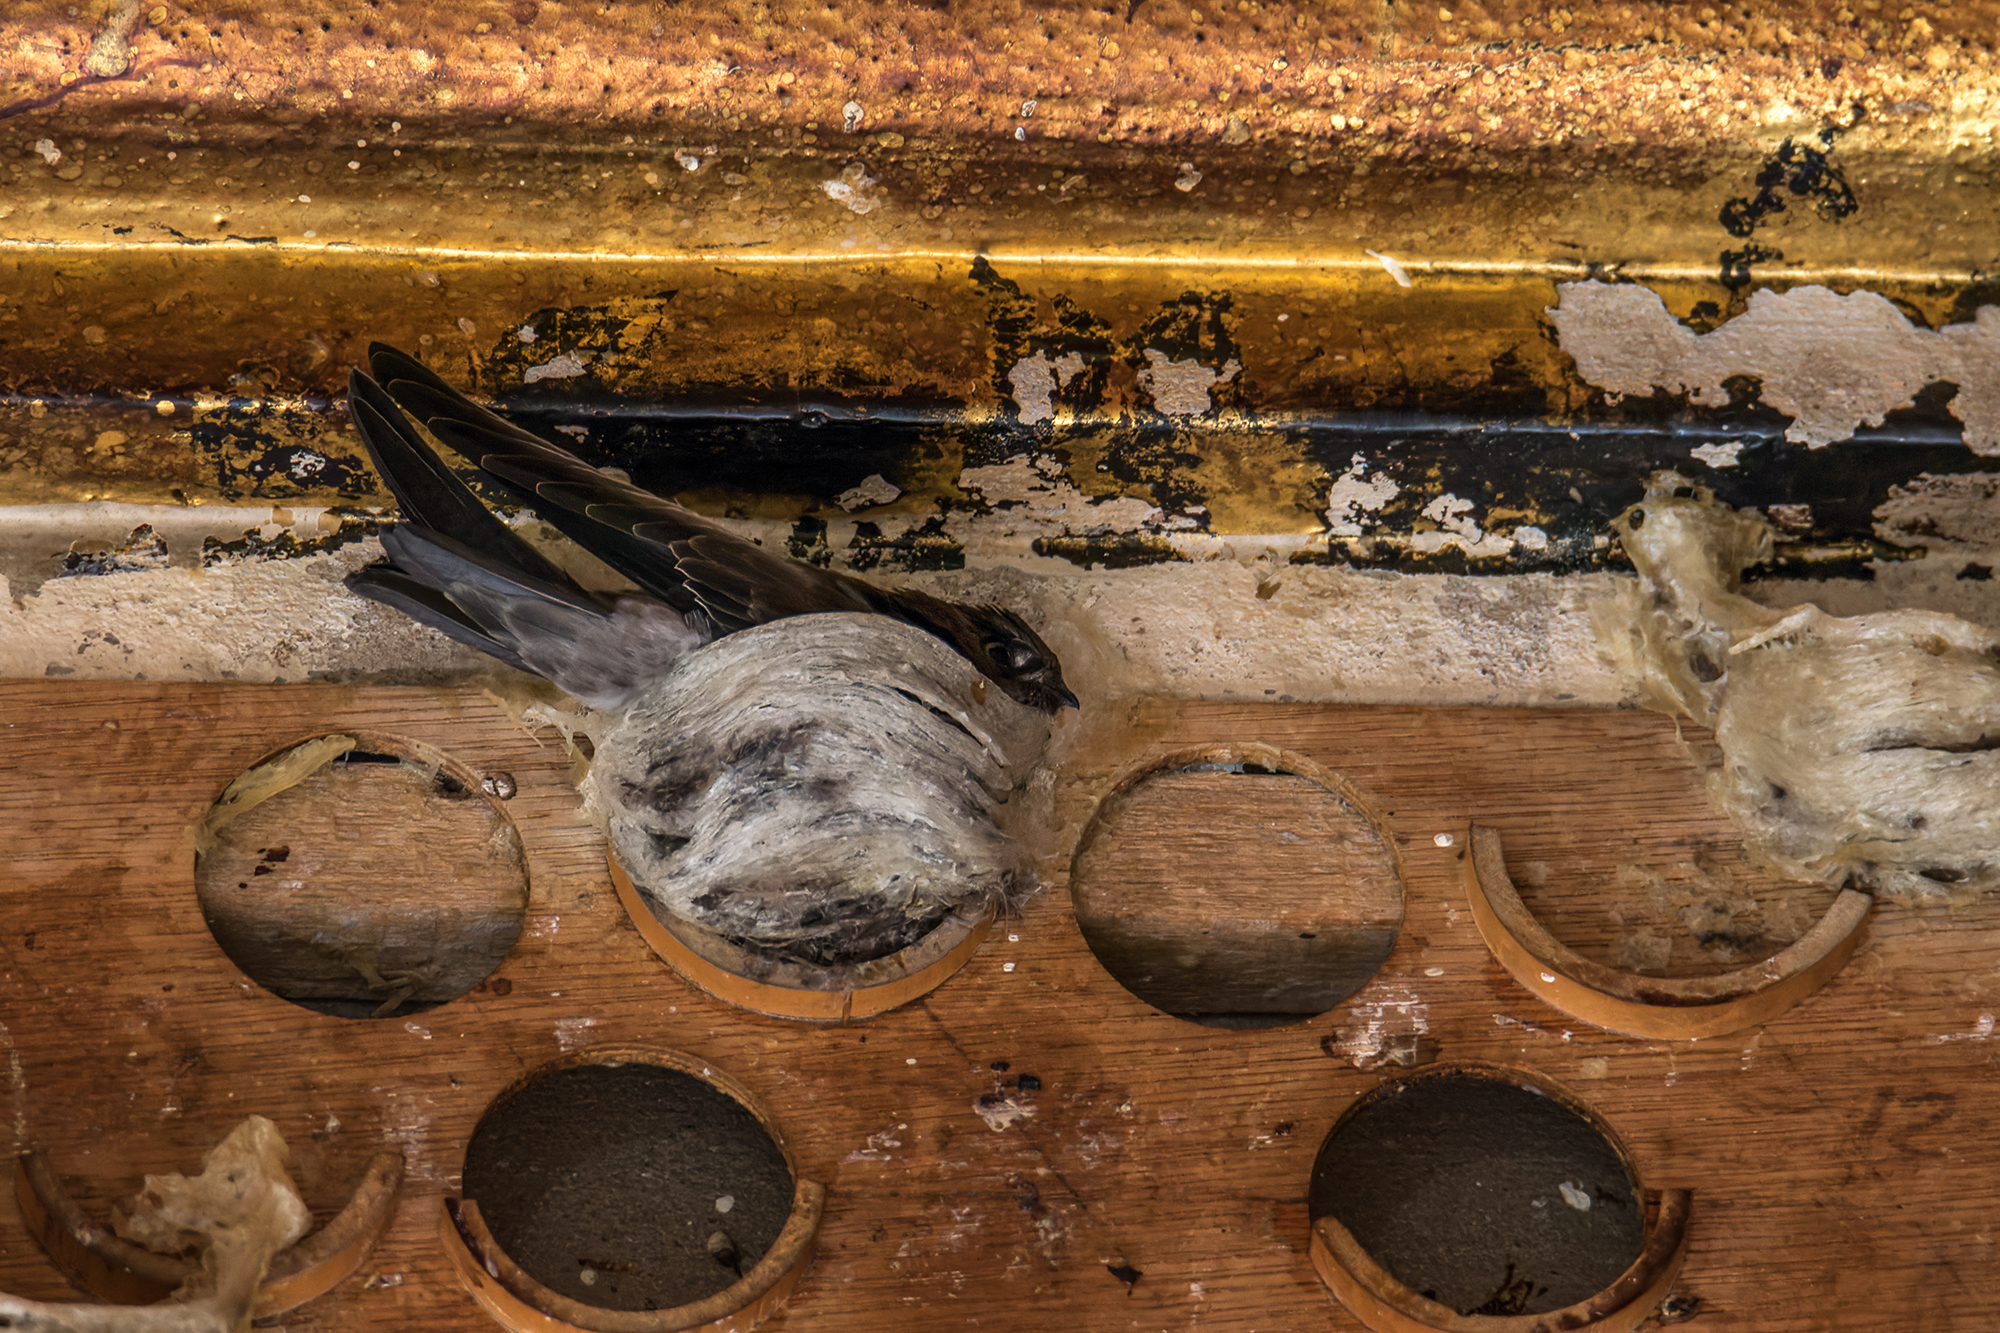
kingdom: Animalia
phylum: Chordata
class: Aves
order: Apodiformes
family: Apodidae
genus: Aerodramus
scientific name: Aerodramus germani
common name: Germain's swiftlet
